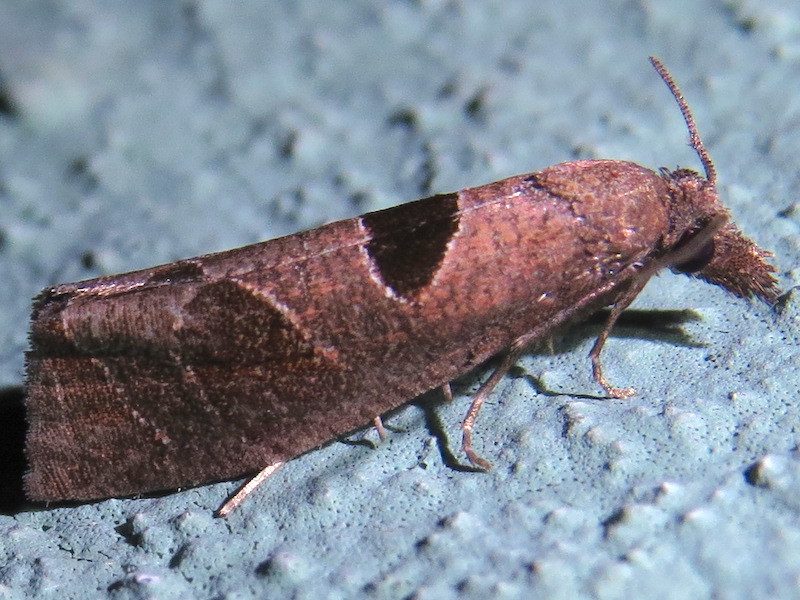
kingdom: Animalia
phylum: Arthropoda
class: Insecta
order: Lepidoptera
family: Tortricidae
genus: Pelochrista
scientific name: Pelochrista dorsisignatana
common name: Triangle-backed pelochrista moth
